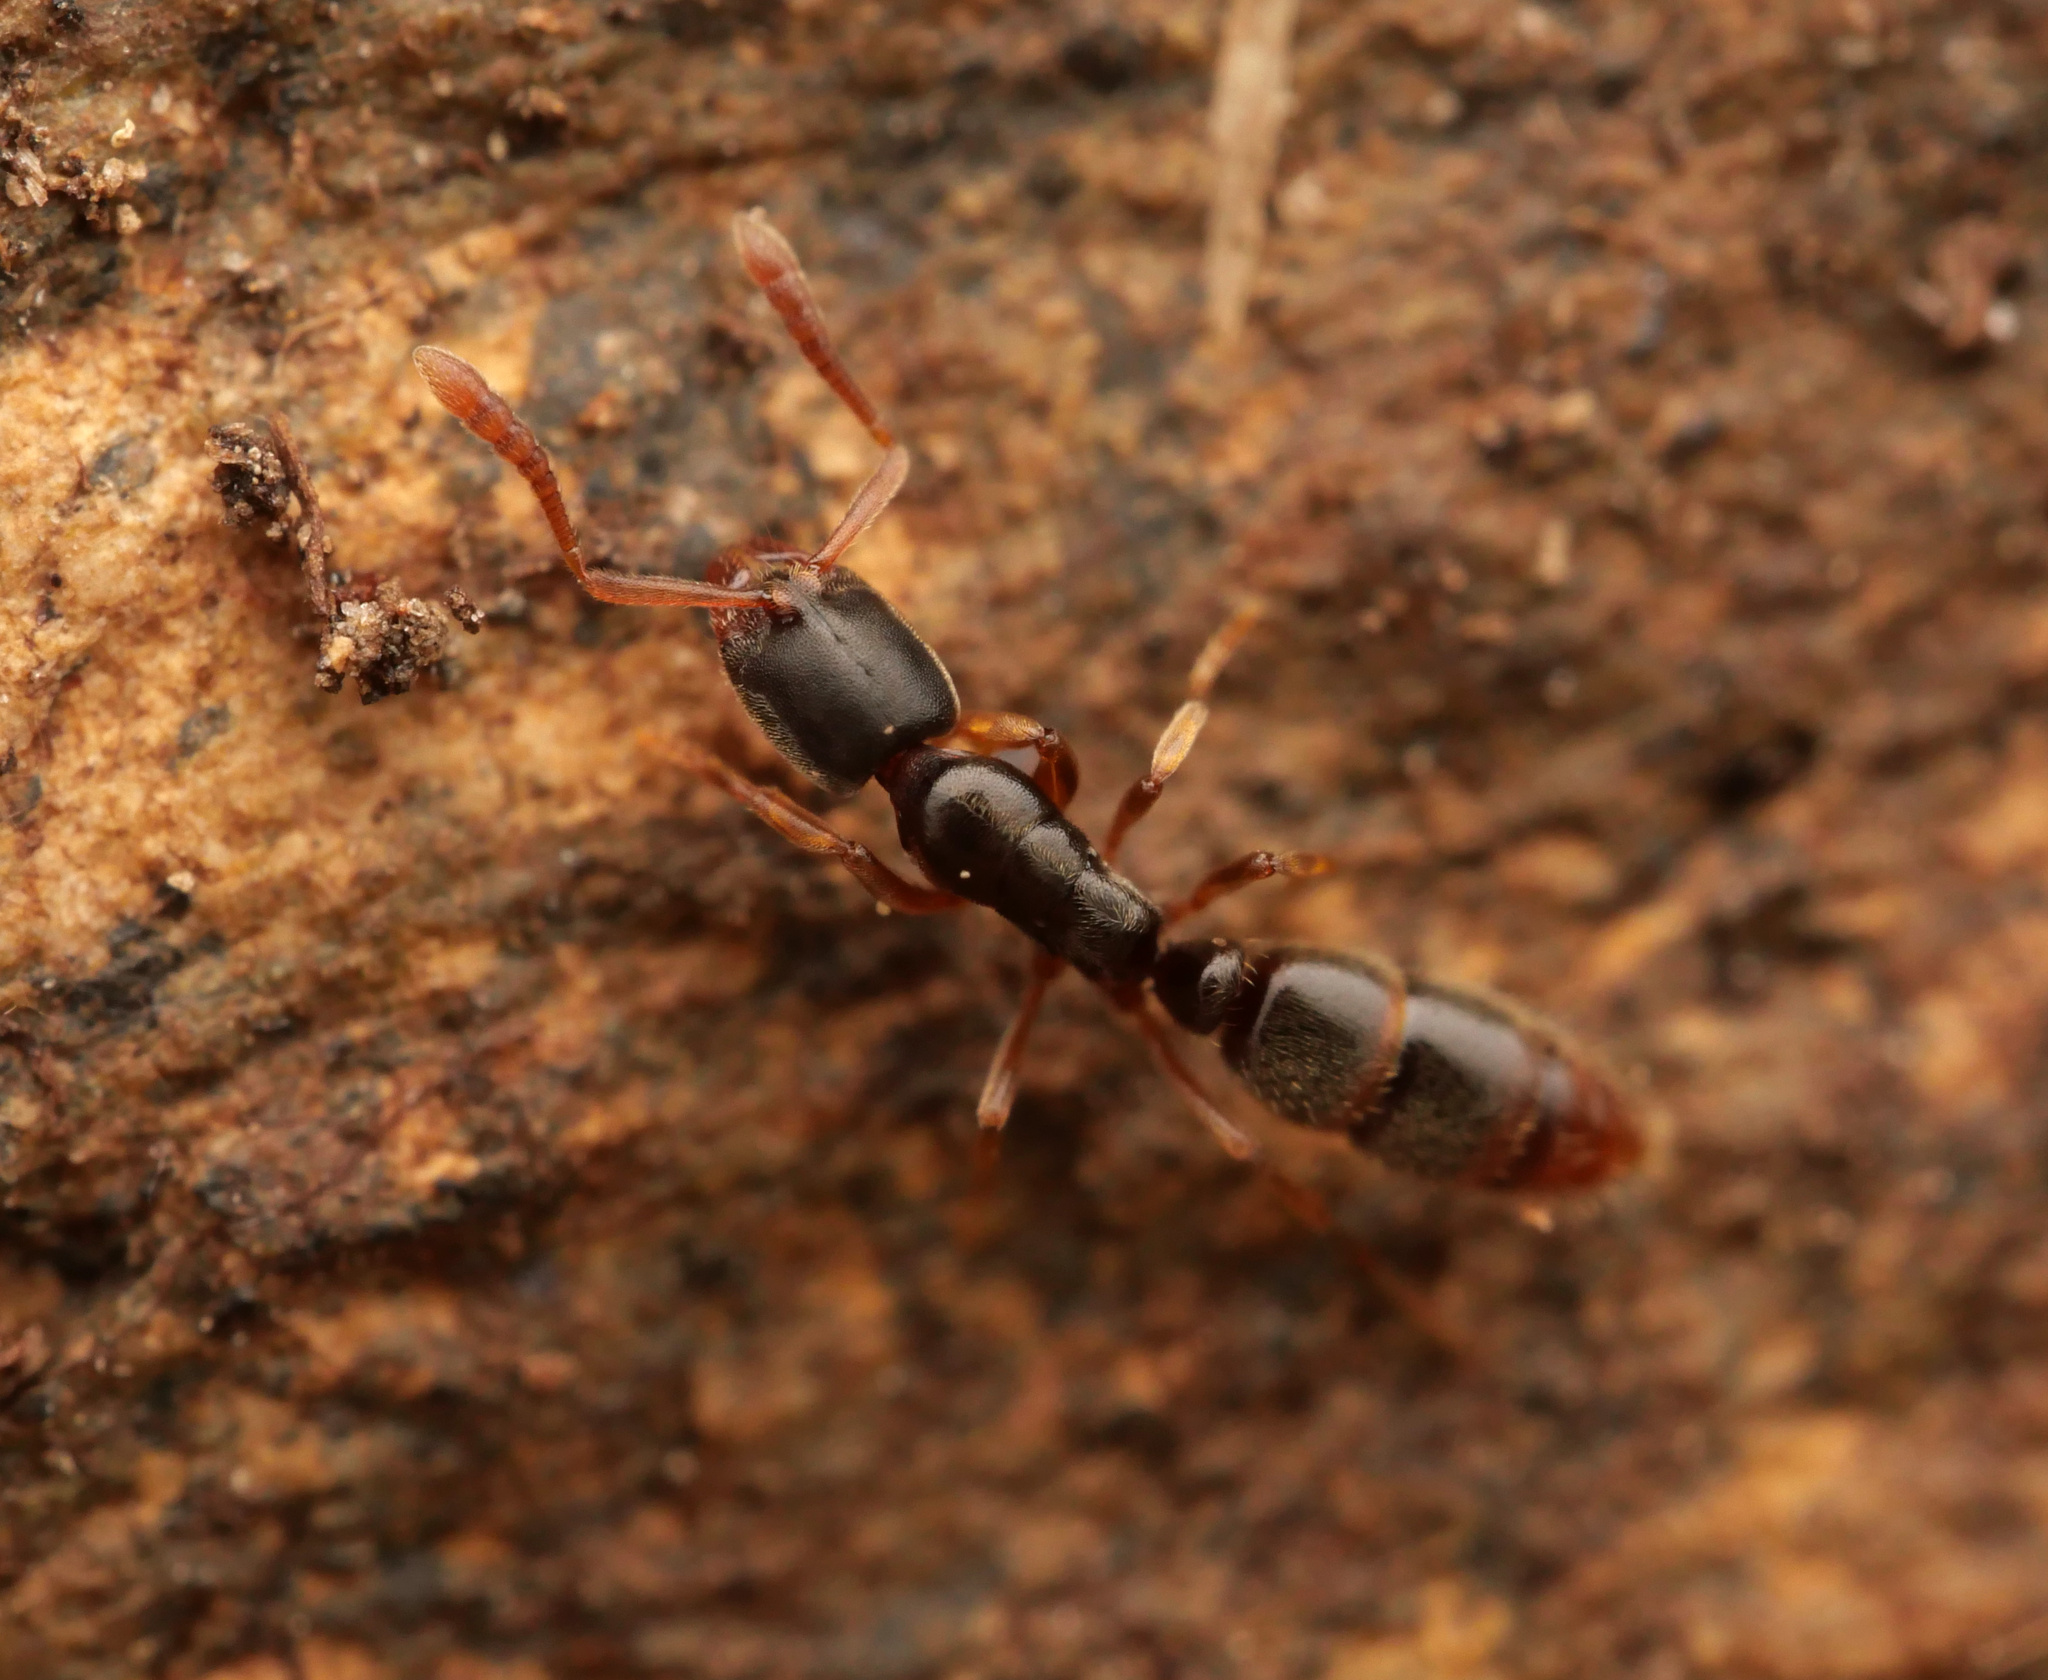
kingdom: Animalia
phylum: Arthropoda
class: Insecta
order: Hymenoptera
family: Formicidae
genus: Ponera
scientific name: Ponera coarctata
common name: Indolent ant
